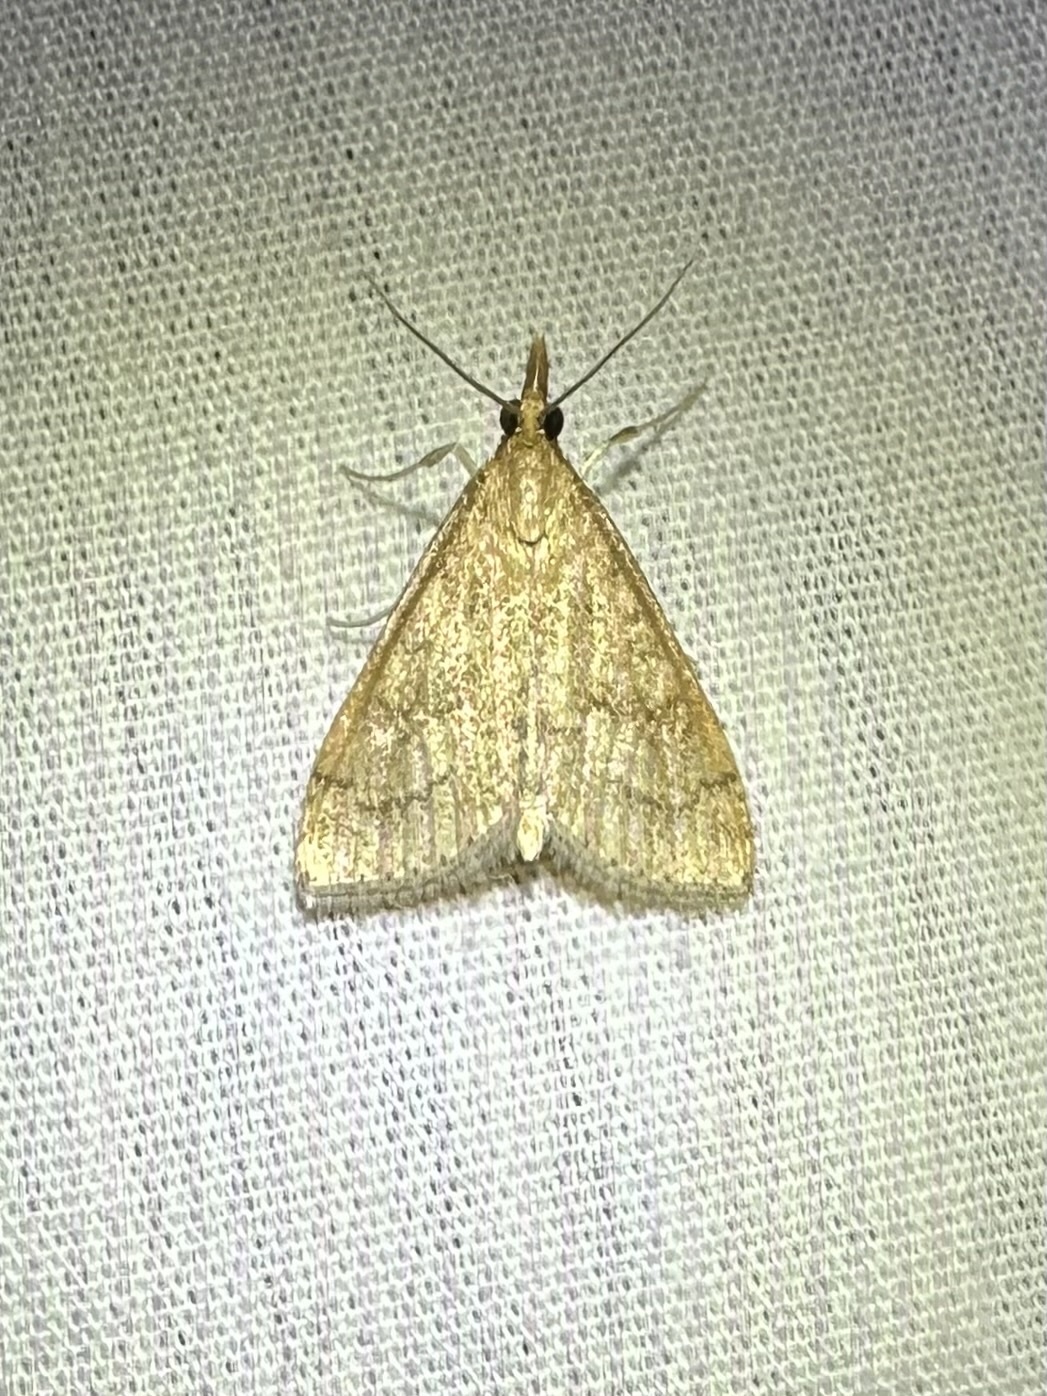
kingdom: Animalia
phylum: Arthropoda
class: Insecta
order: Lepidoptera
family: Crambidae
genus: Udea
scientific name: Udea rubigalis
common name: Celery leaftier moth
